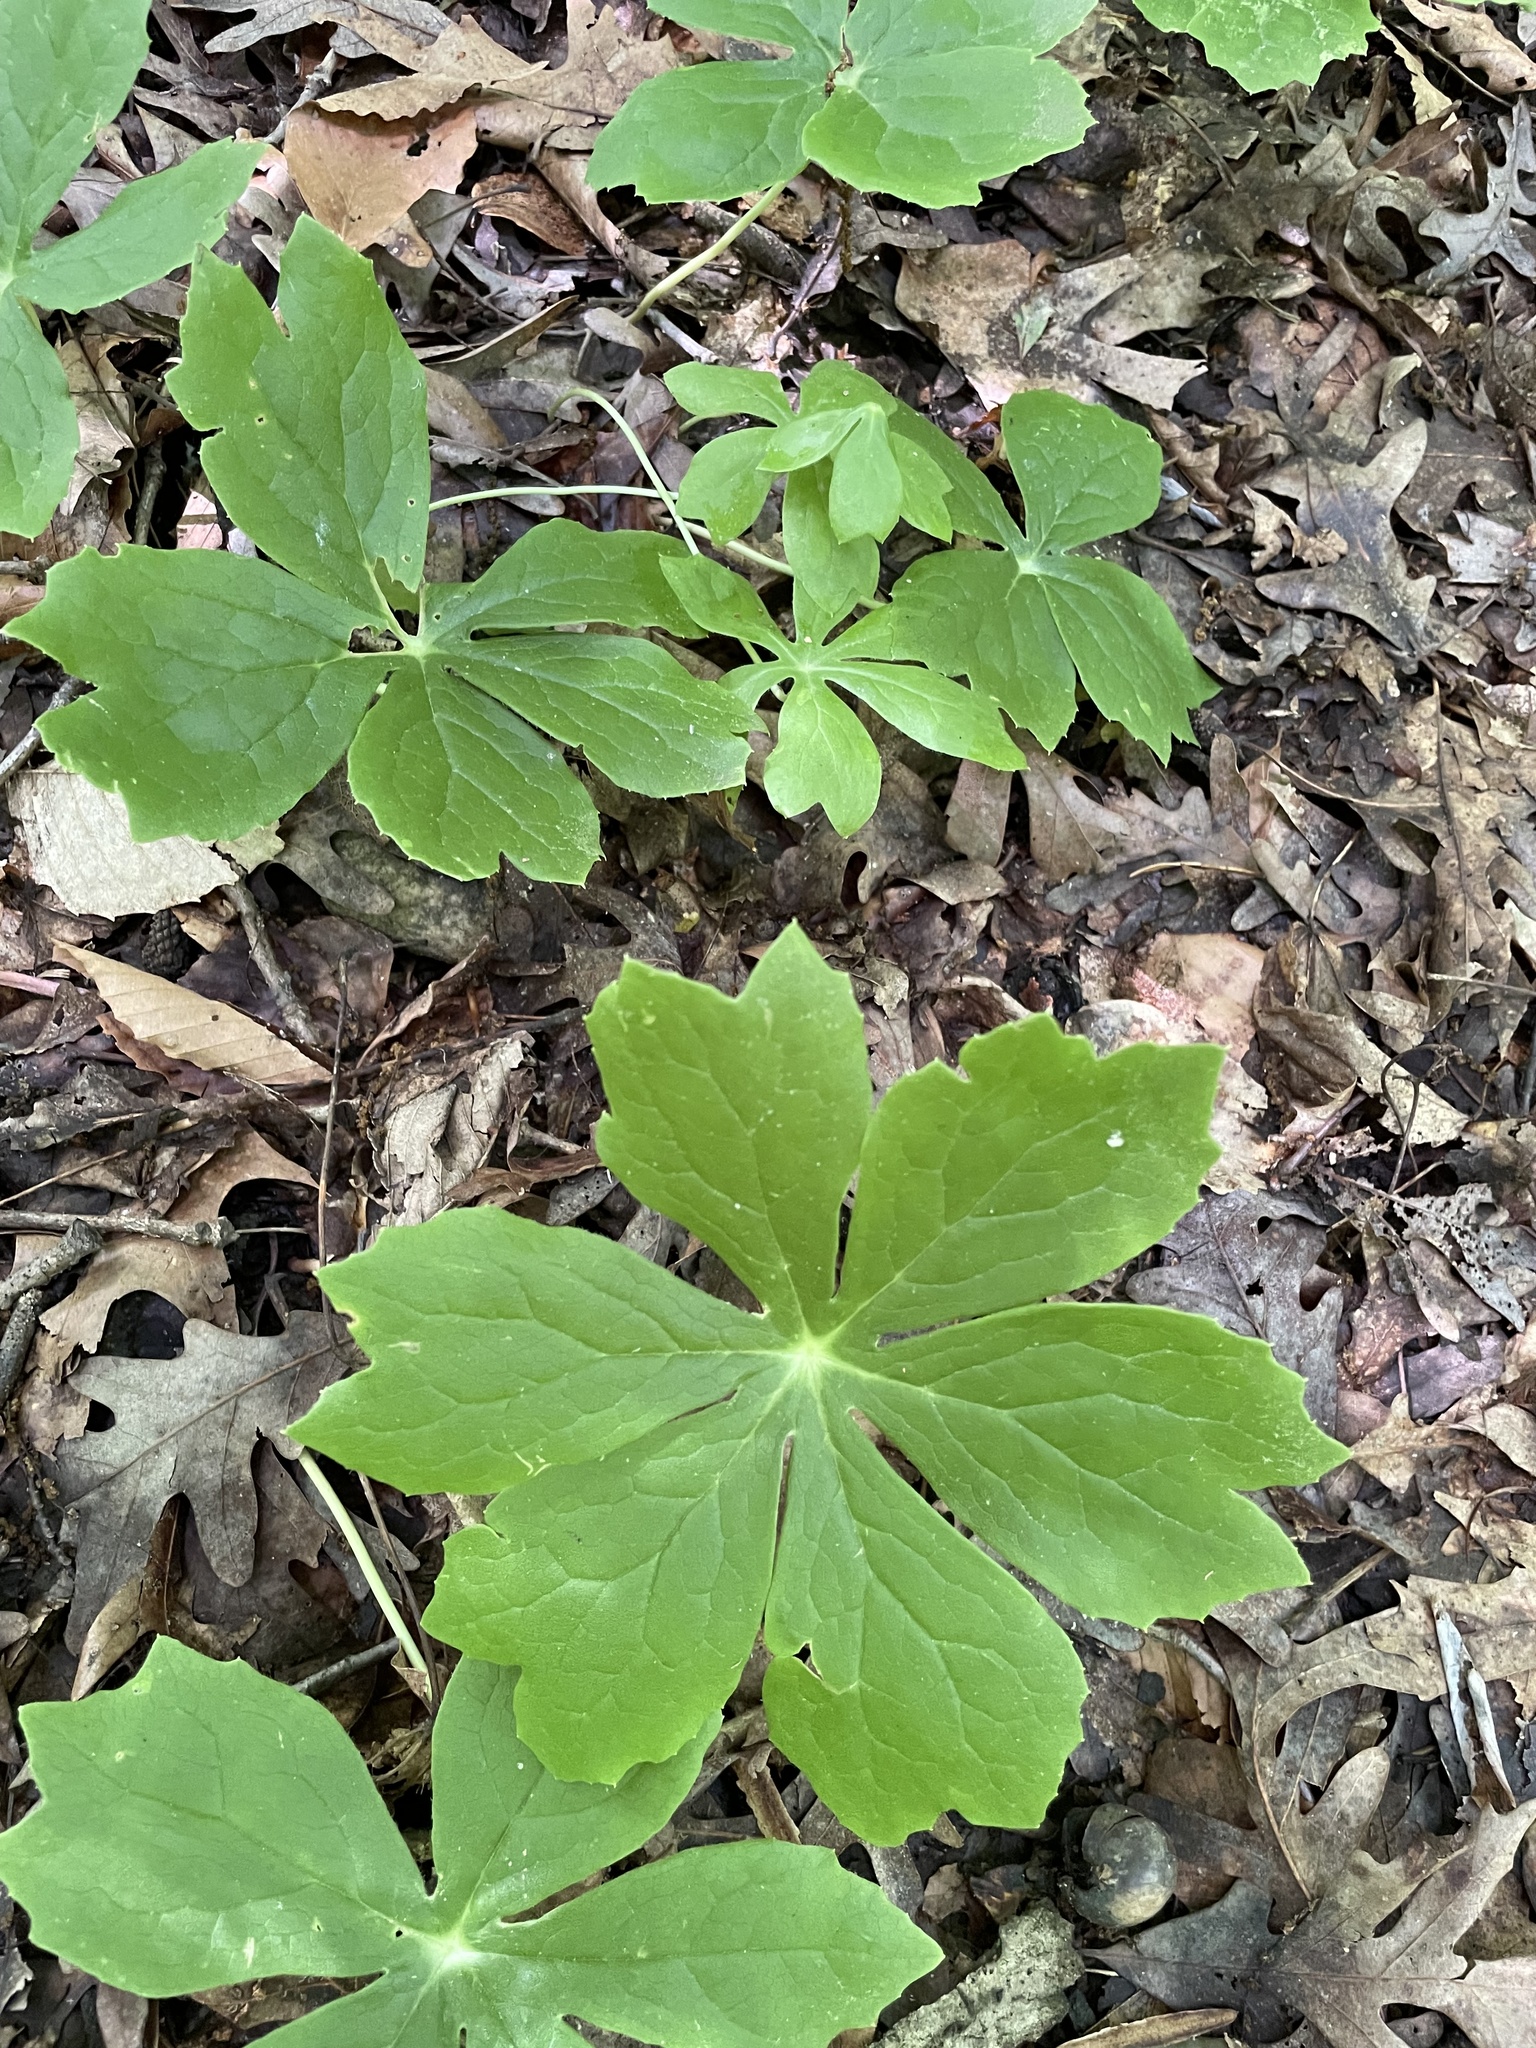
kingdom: Plantae
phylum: Tracheophyta
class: Magnoliopsida
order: Ranunculales
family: Berberidaceae
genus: Podophyllum
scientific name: Podophyllum peltatum
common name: Wild mandrake
